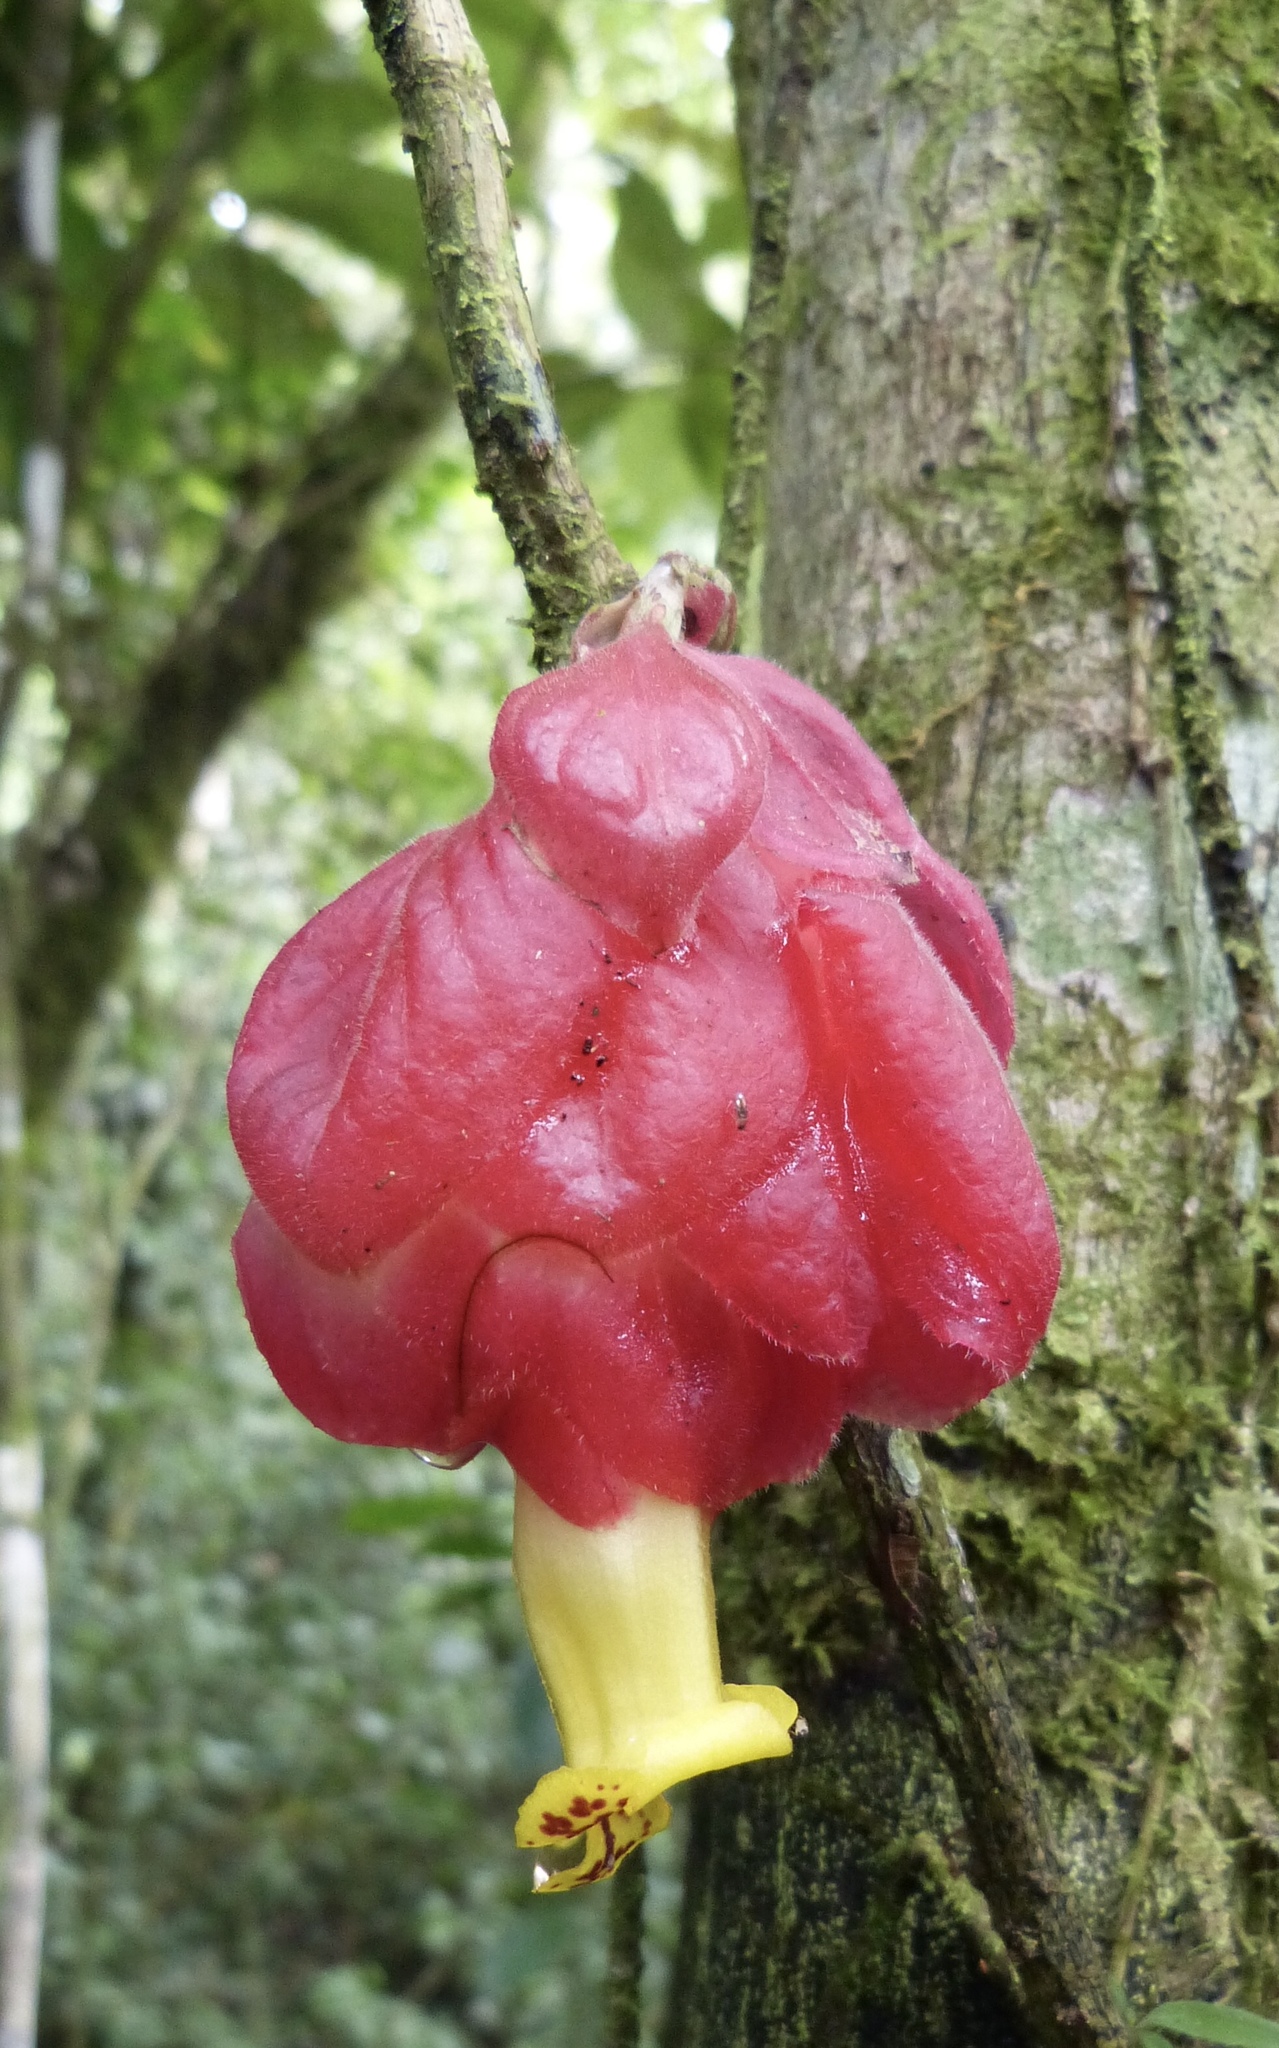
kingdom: Plantae
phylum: Tracheophyta
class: Magnoliopsida
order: Lamiales
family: Gesneriaceae
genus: Drymonia
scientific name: Drymonia coccinea
